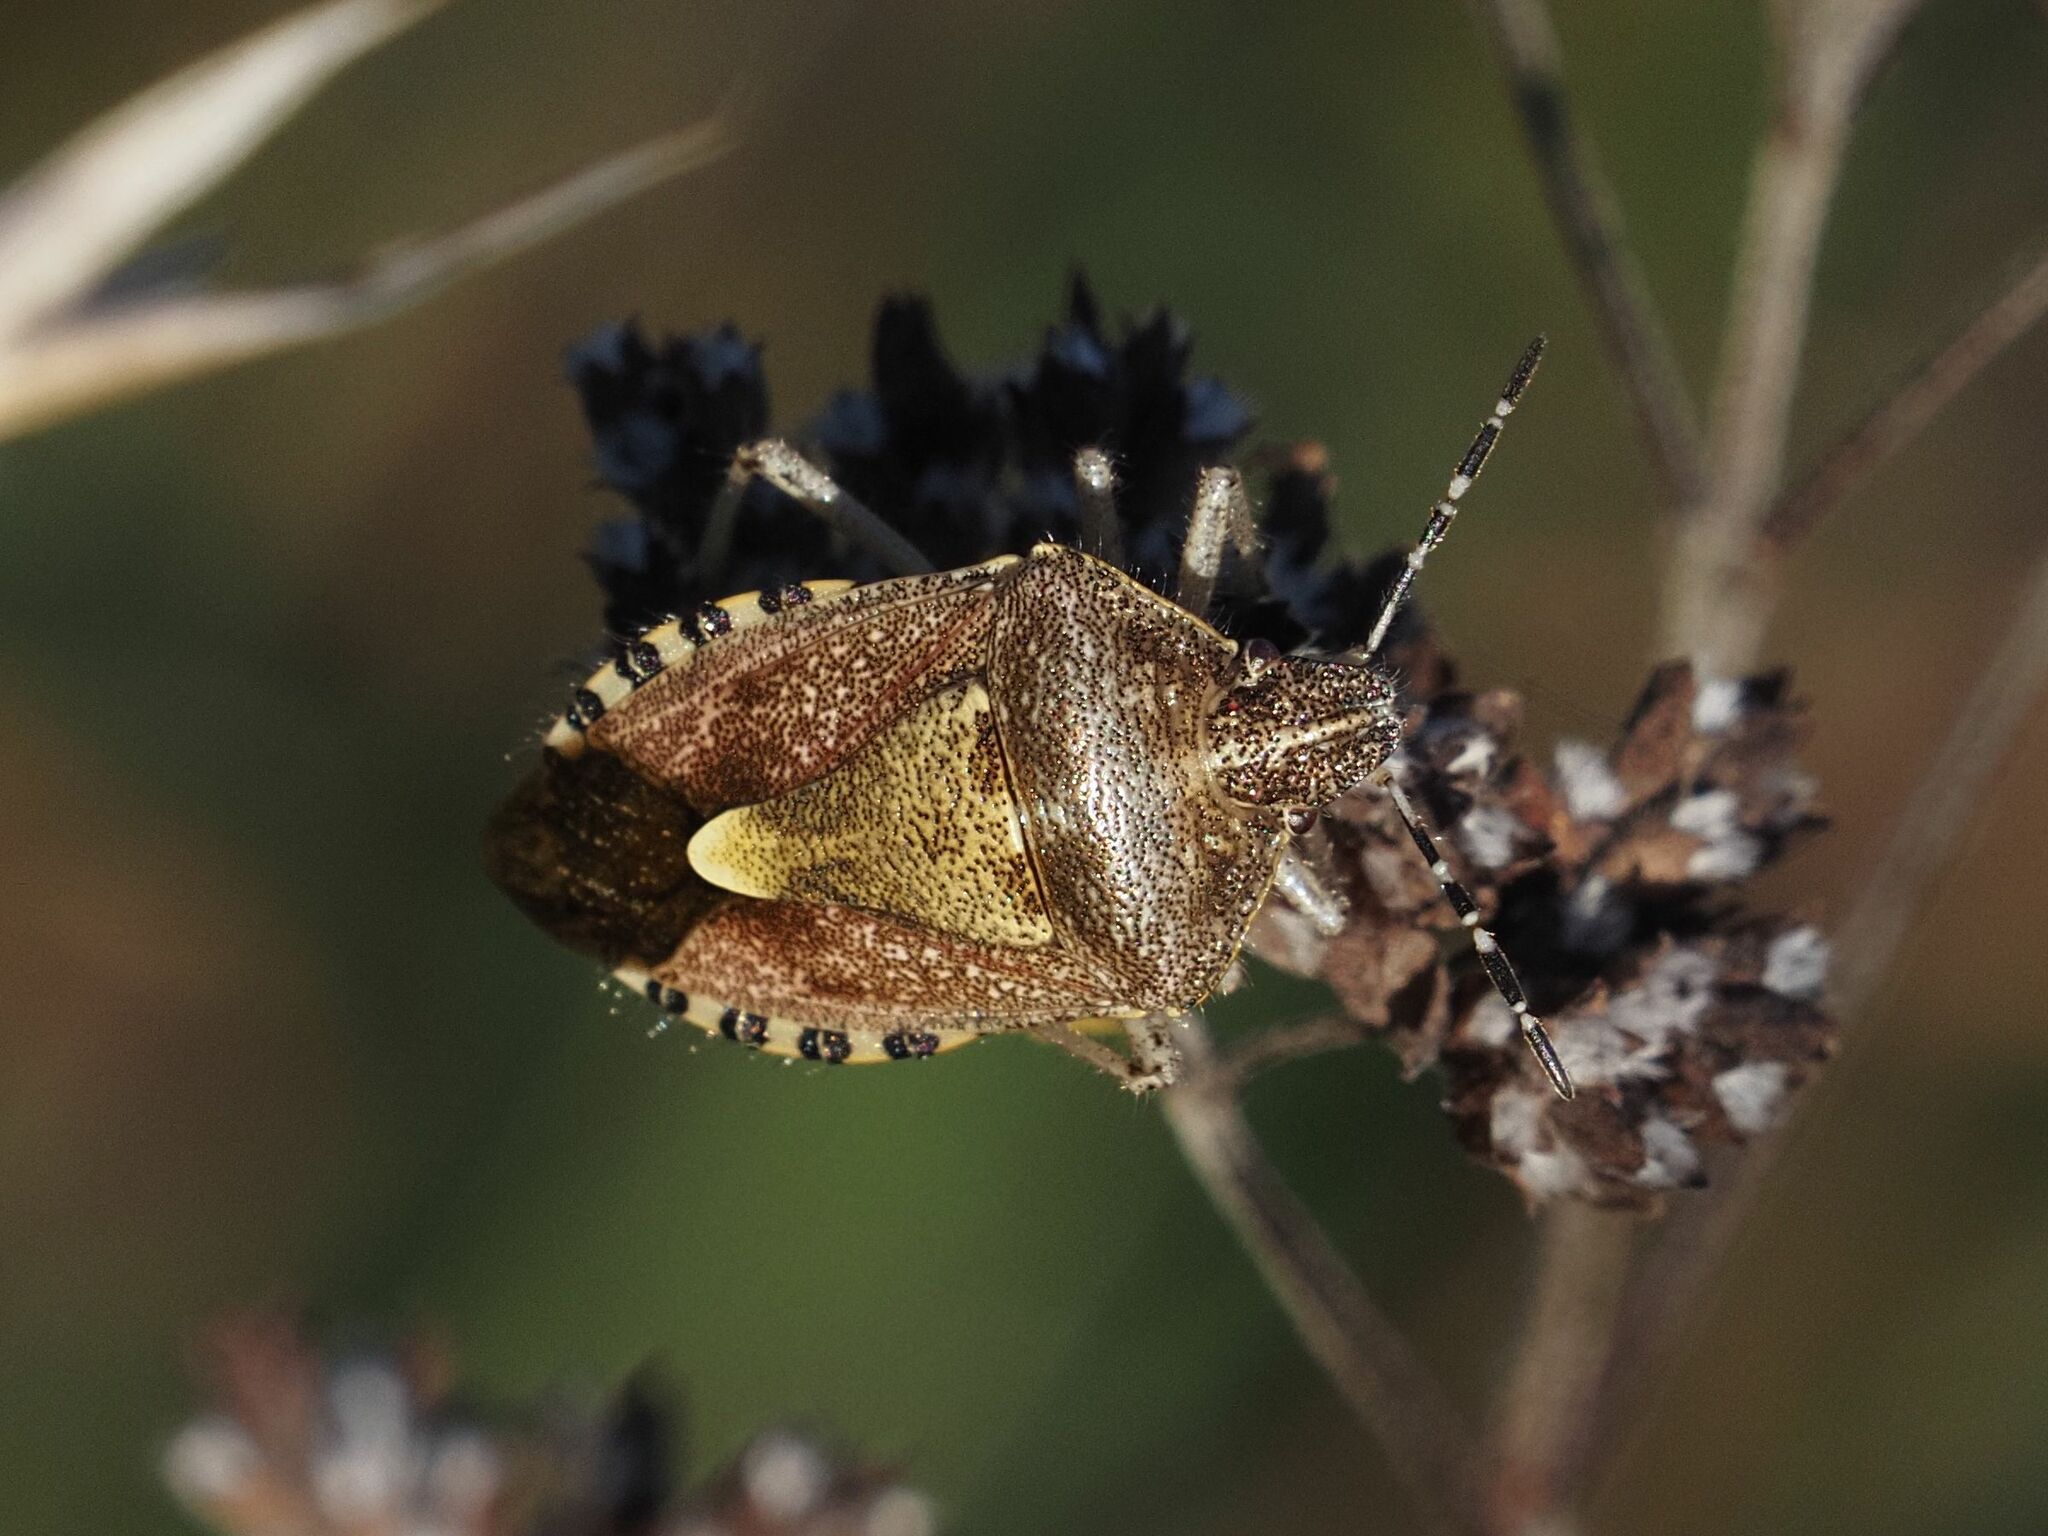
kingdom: Animalia
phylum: Arthropoda
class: Insecta
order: Hemiptera
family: Pentatomidae
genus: Dolycoris
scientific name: Dolycoris baccarum
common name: Sloe bug
